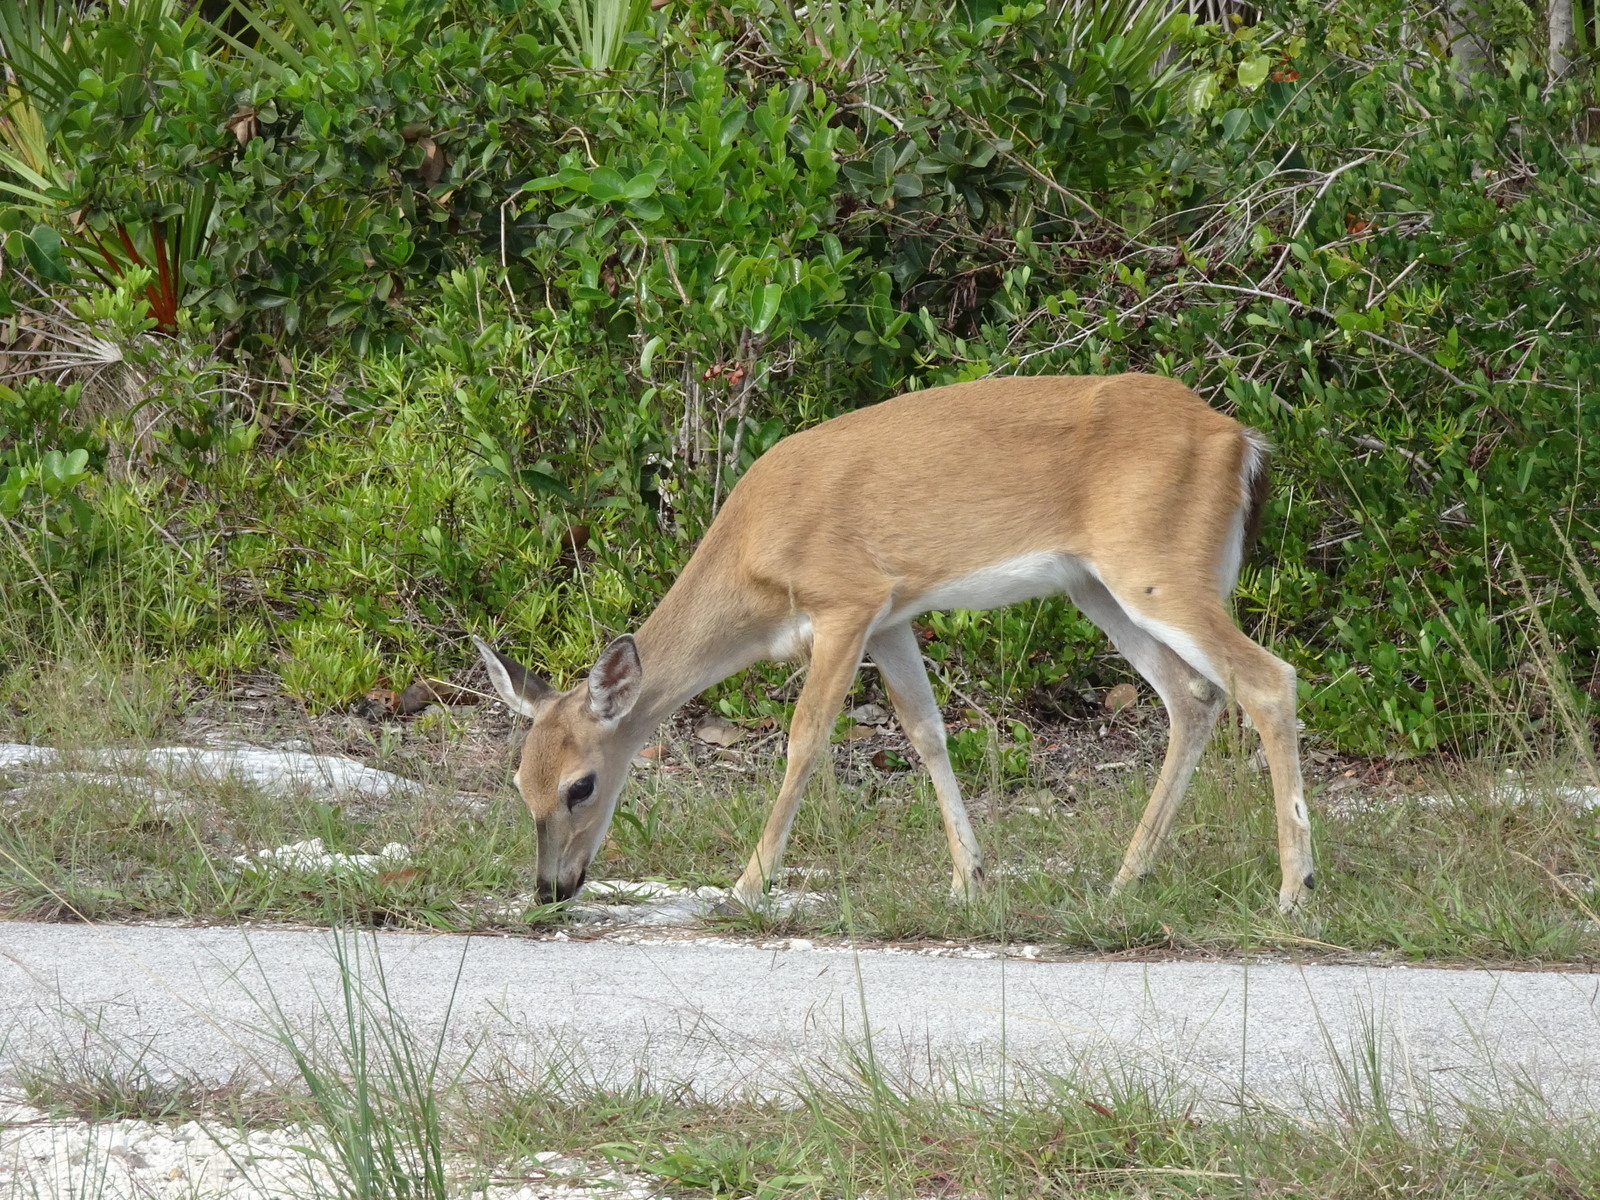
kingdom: Animalia
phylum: Chordata
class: Mammalia
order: Artiodactyla
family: Cervidae
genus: Odocoileus
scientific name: Odocoileus virginianus
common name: White-tailed deer
